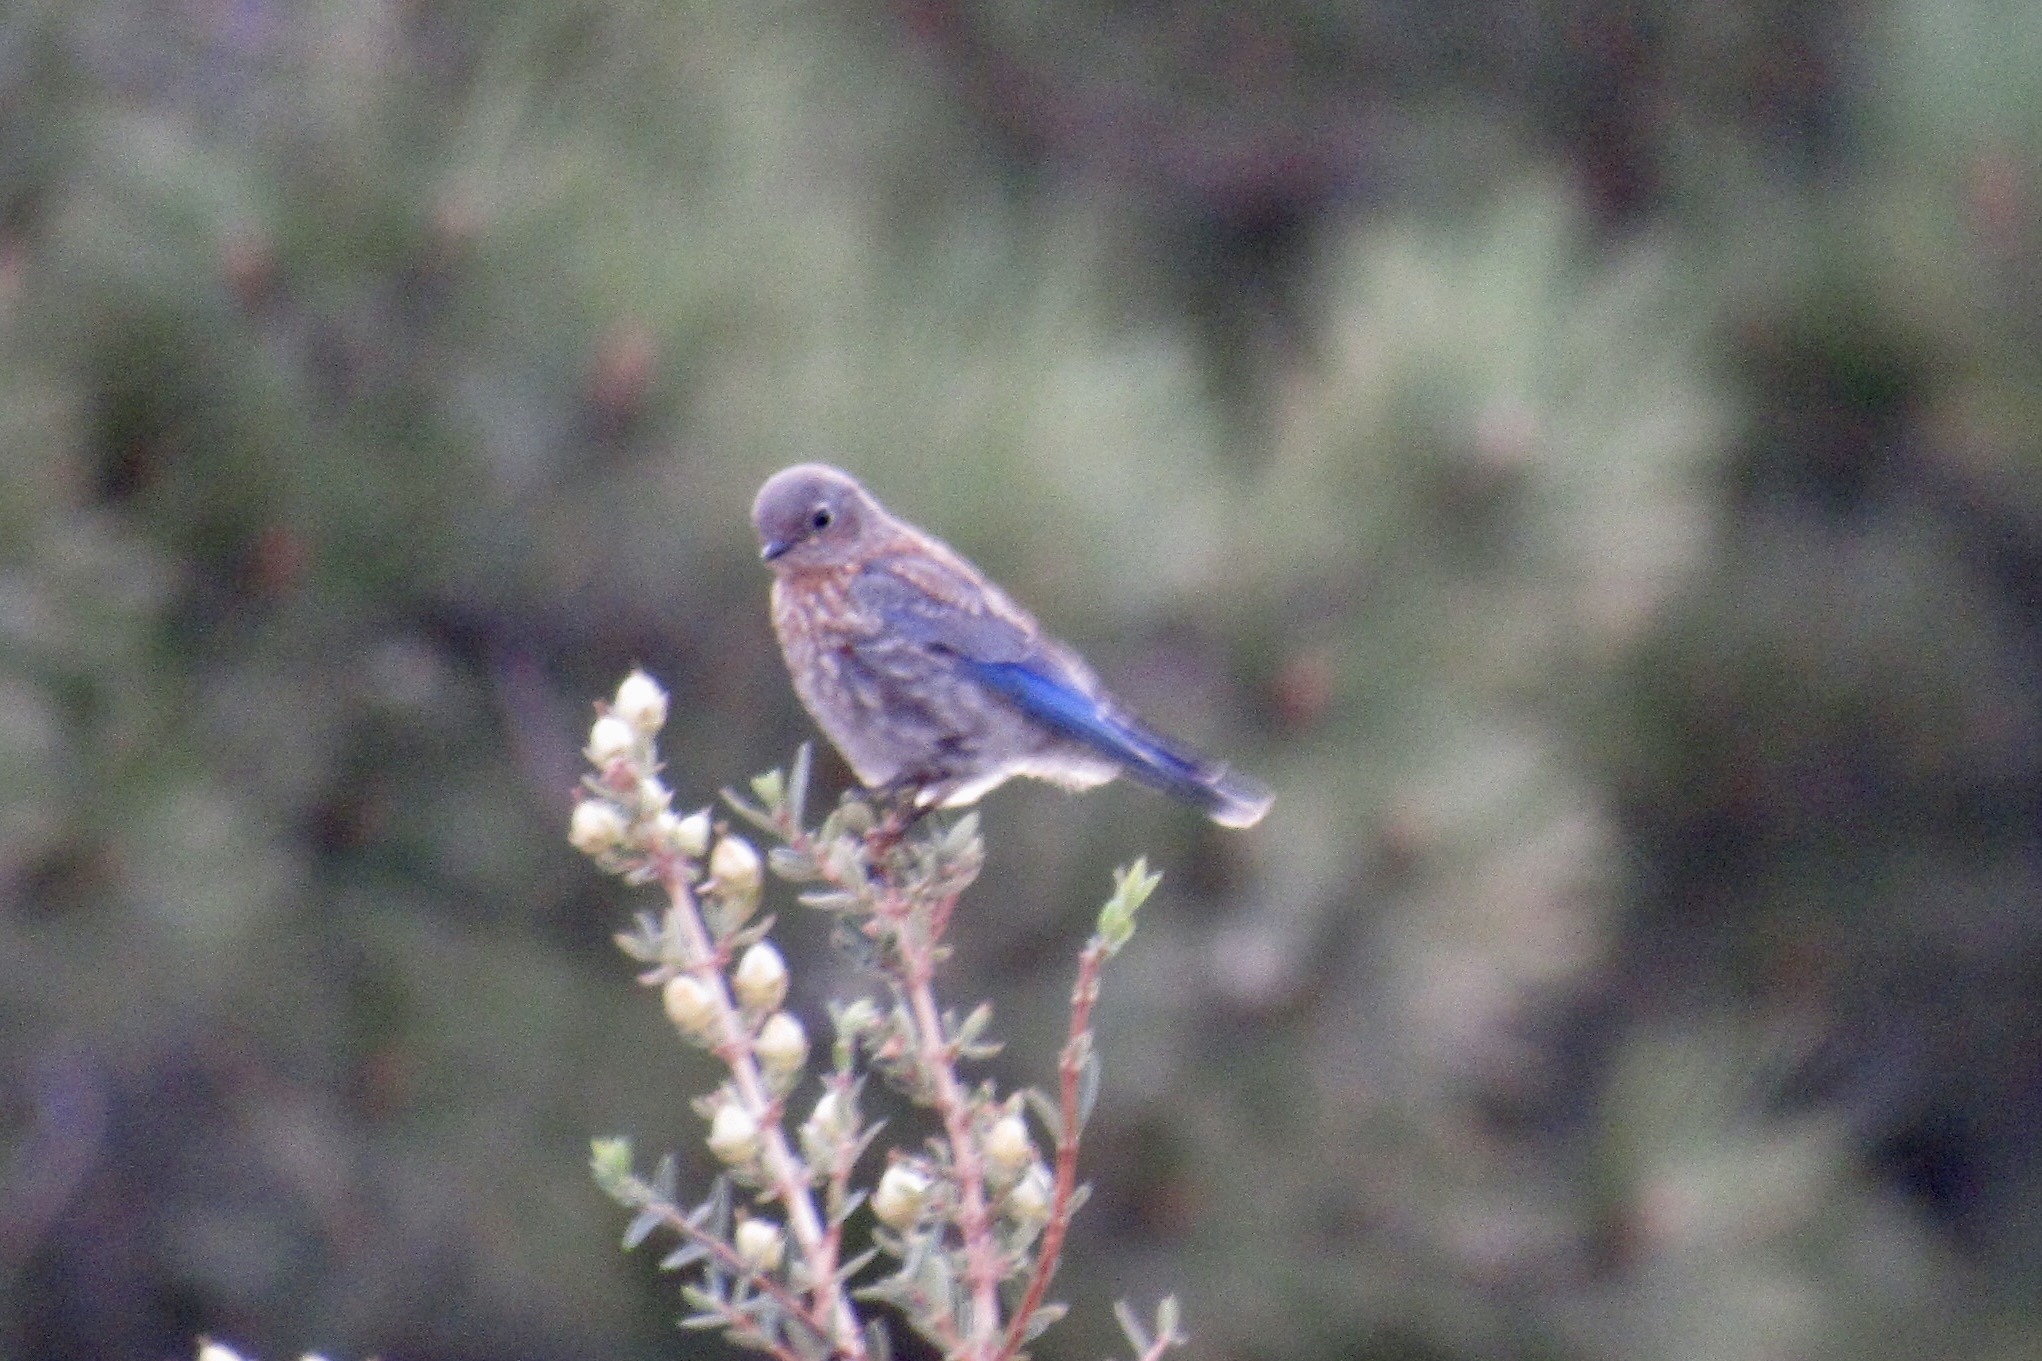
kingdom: Animalia
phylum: Chordata
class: Aves
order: Passeriformes
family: Turdidae
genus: Sialia
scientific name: Sialia mexicana
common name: Western bluebird
